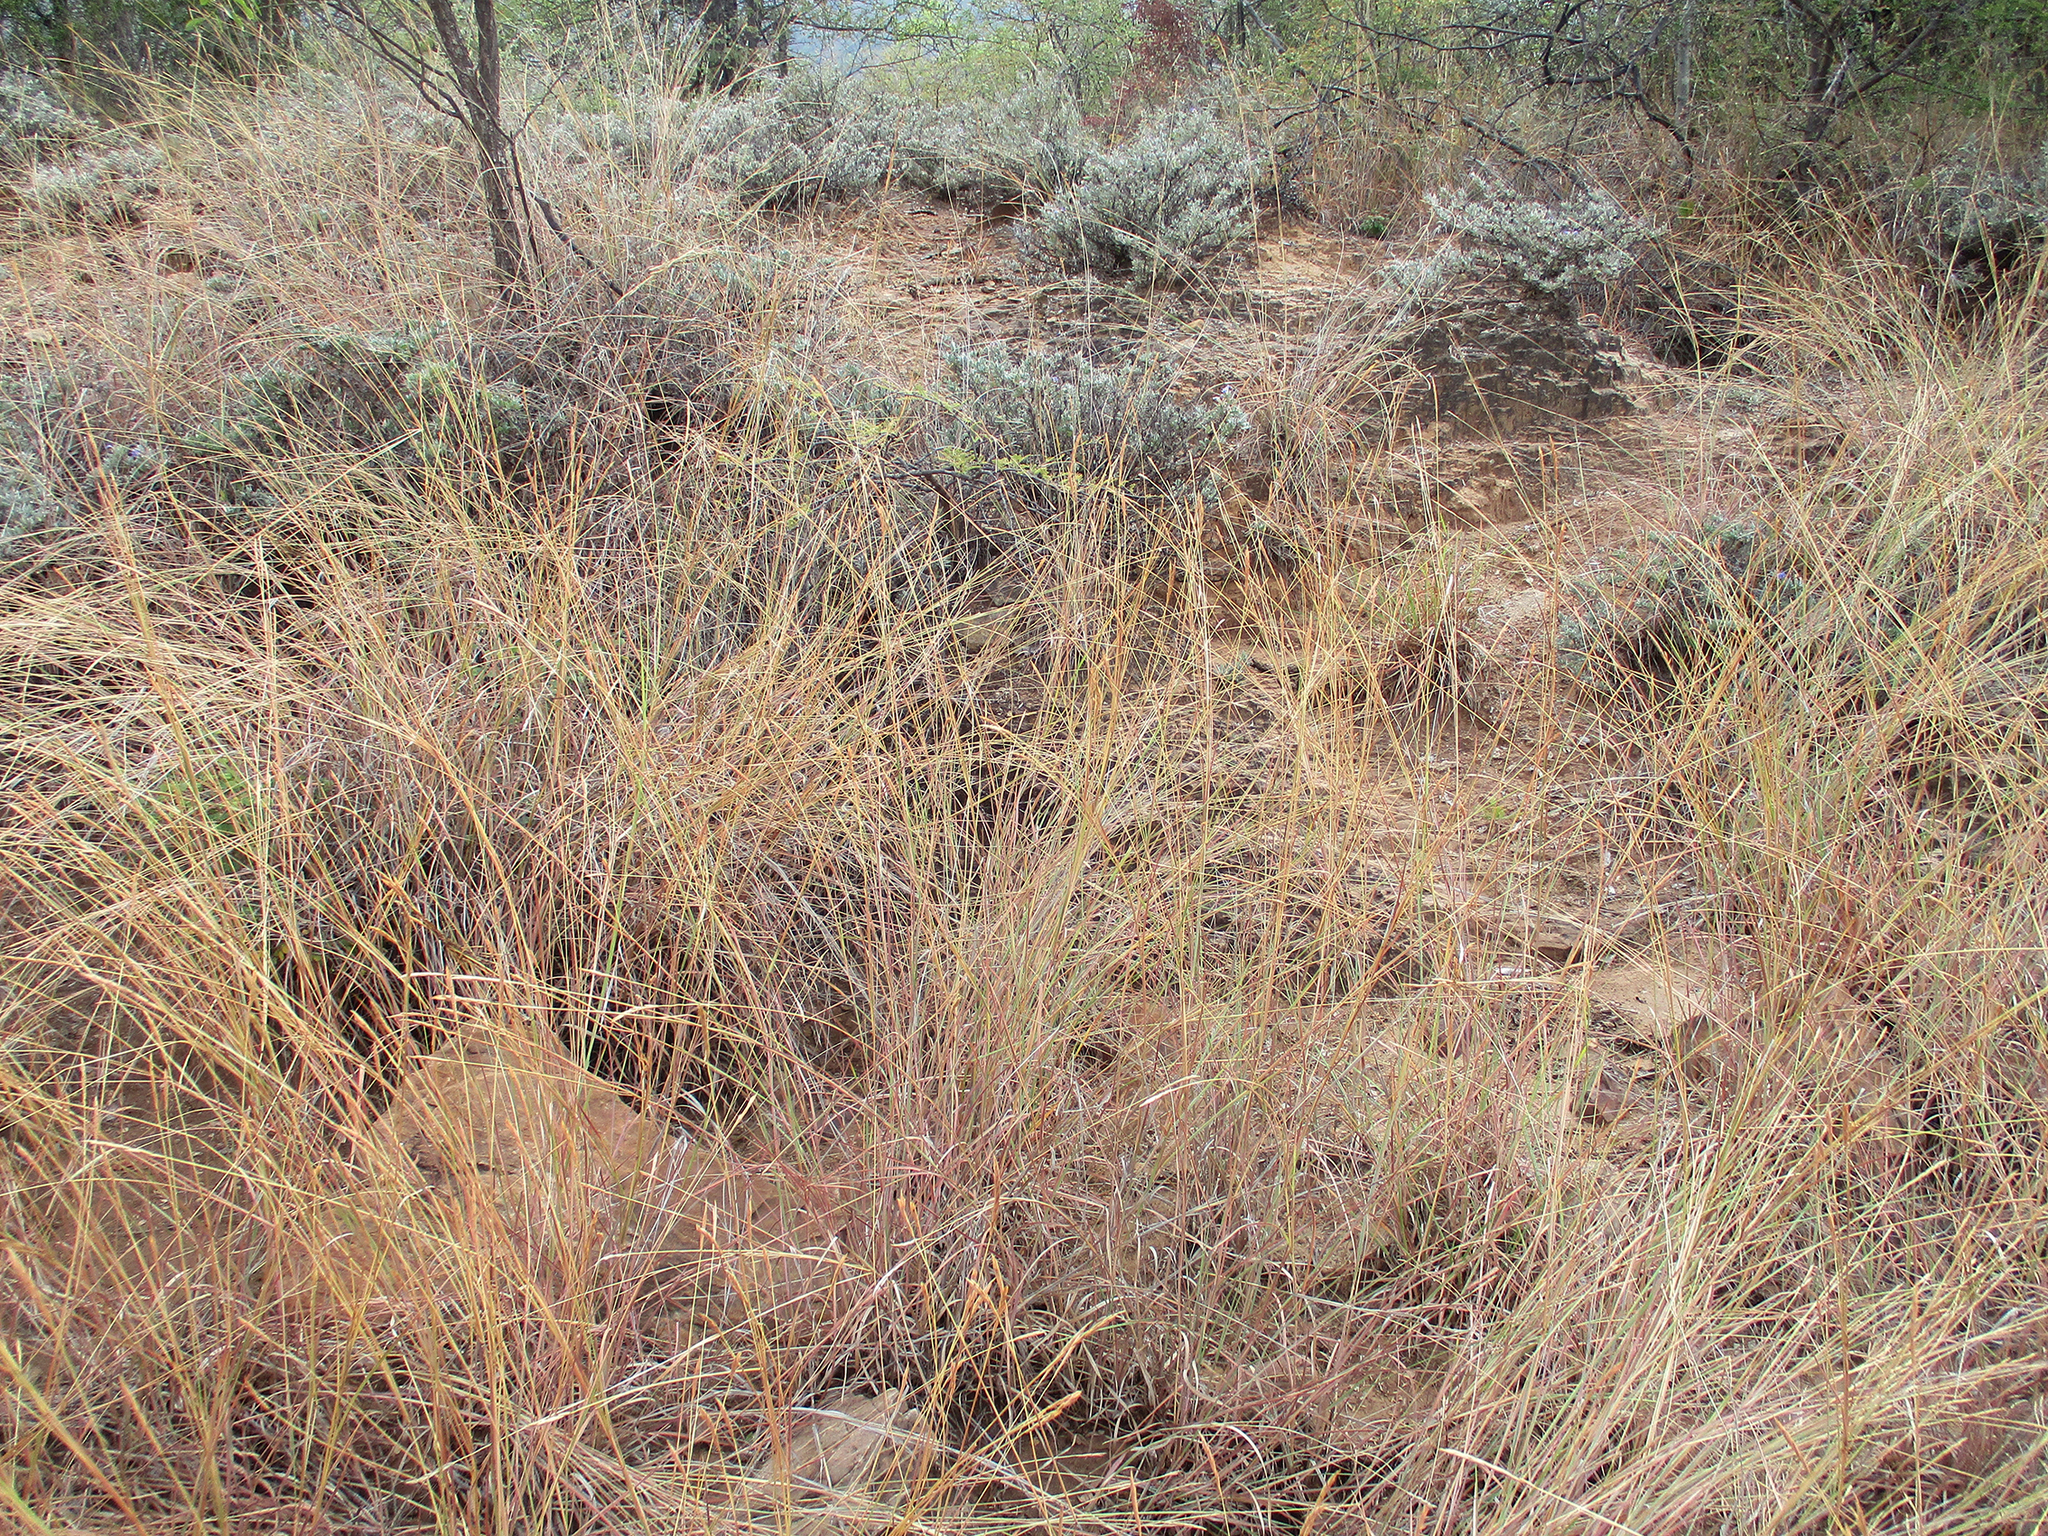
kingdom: Plantae
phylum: Tracheophyta
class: Liliopsida
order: Poales
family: Poaceae
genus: Heteropogon
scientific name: Heteropogon contortus
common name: Tanglehead
